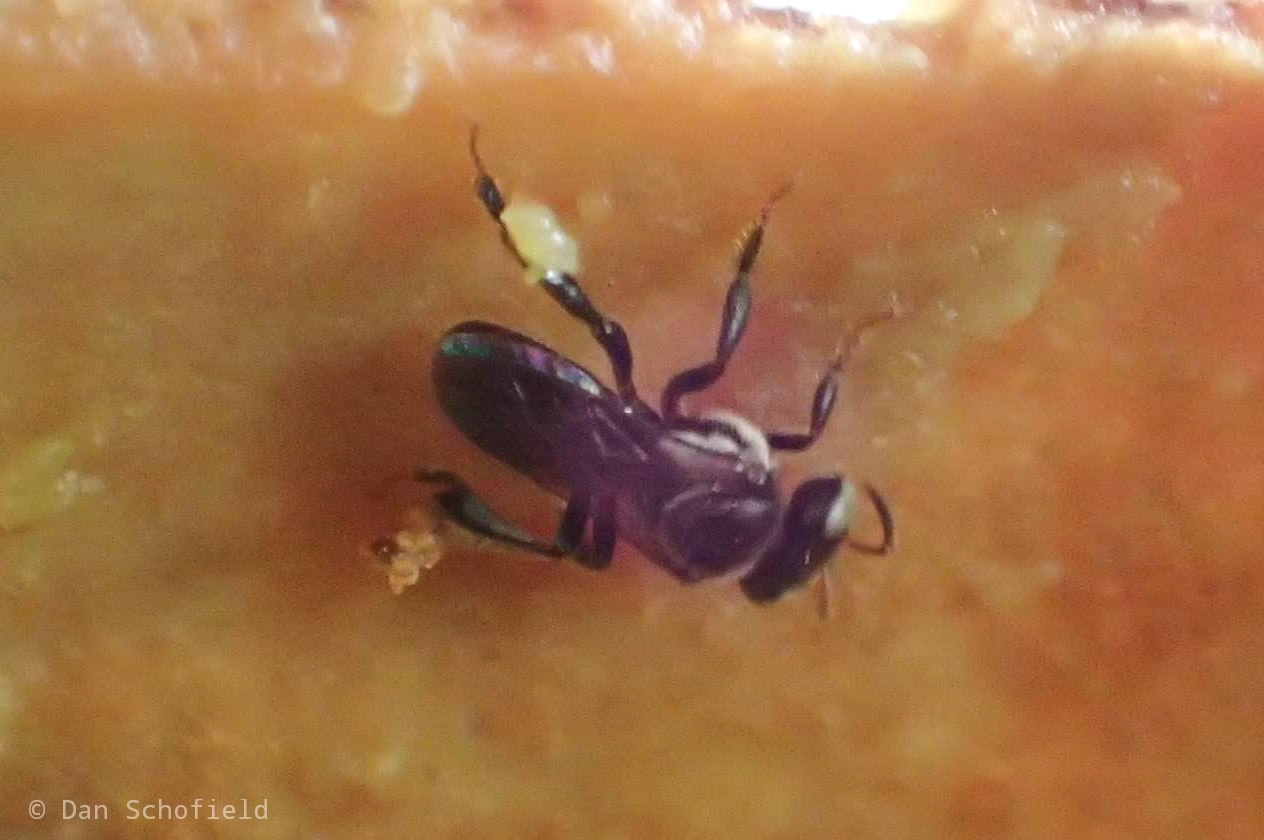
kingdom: Animalia
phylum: Arthropoda
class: Insecta
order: Hymenoptera
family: Apidae
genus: Tetragonula
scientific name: Tetragonula
